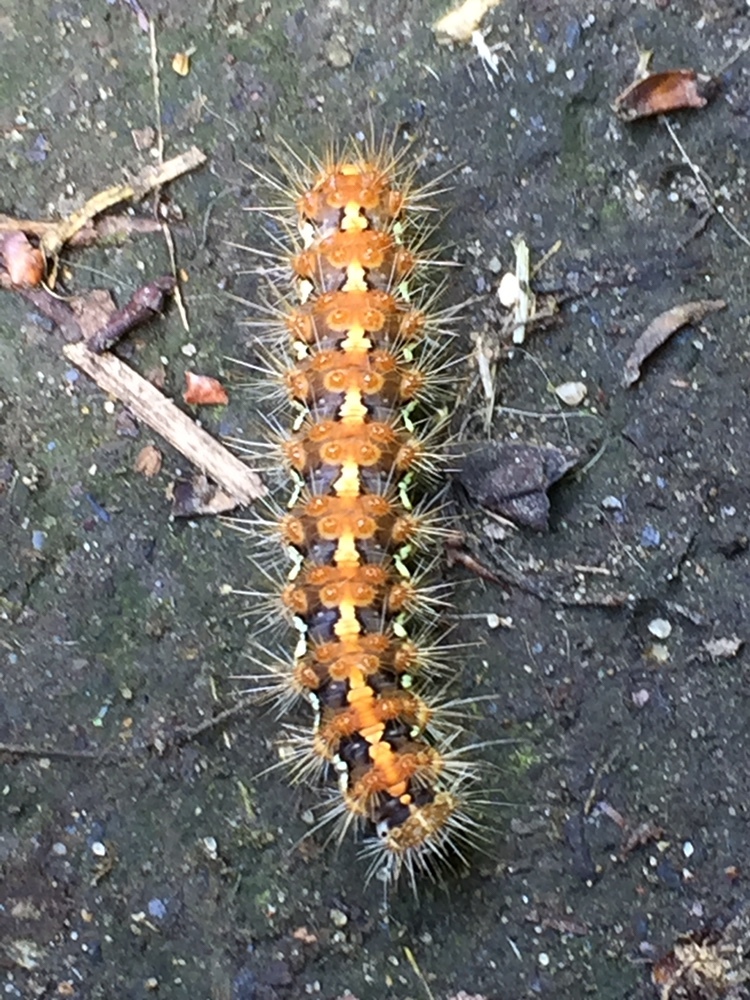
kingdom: Animalia
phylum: Arthropoda
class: Insecta
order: Lepidoptera
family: Erebidae
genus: Euplagia
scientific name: Euplagia quadripunctaria
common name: Jersey tiger
